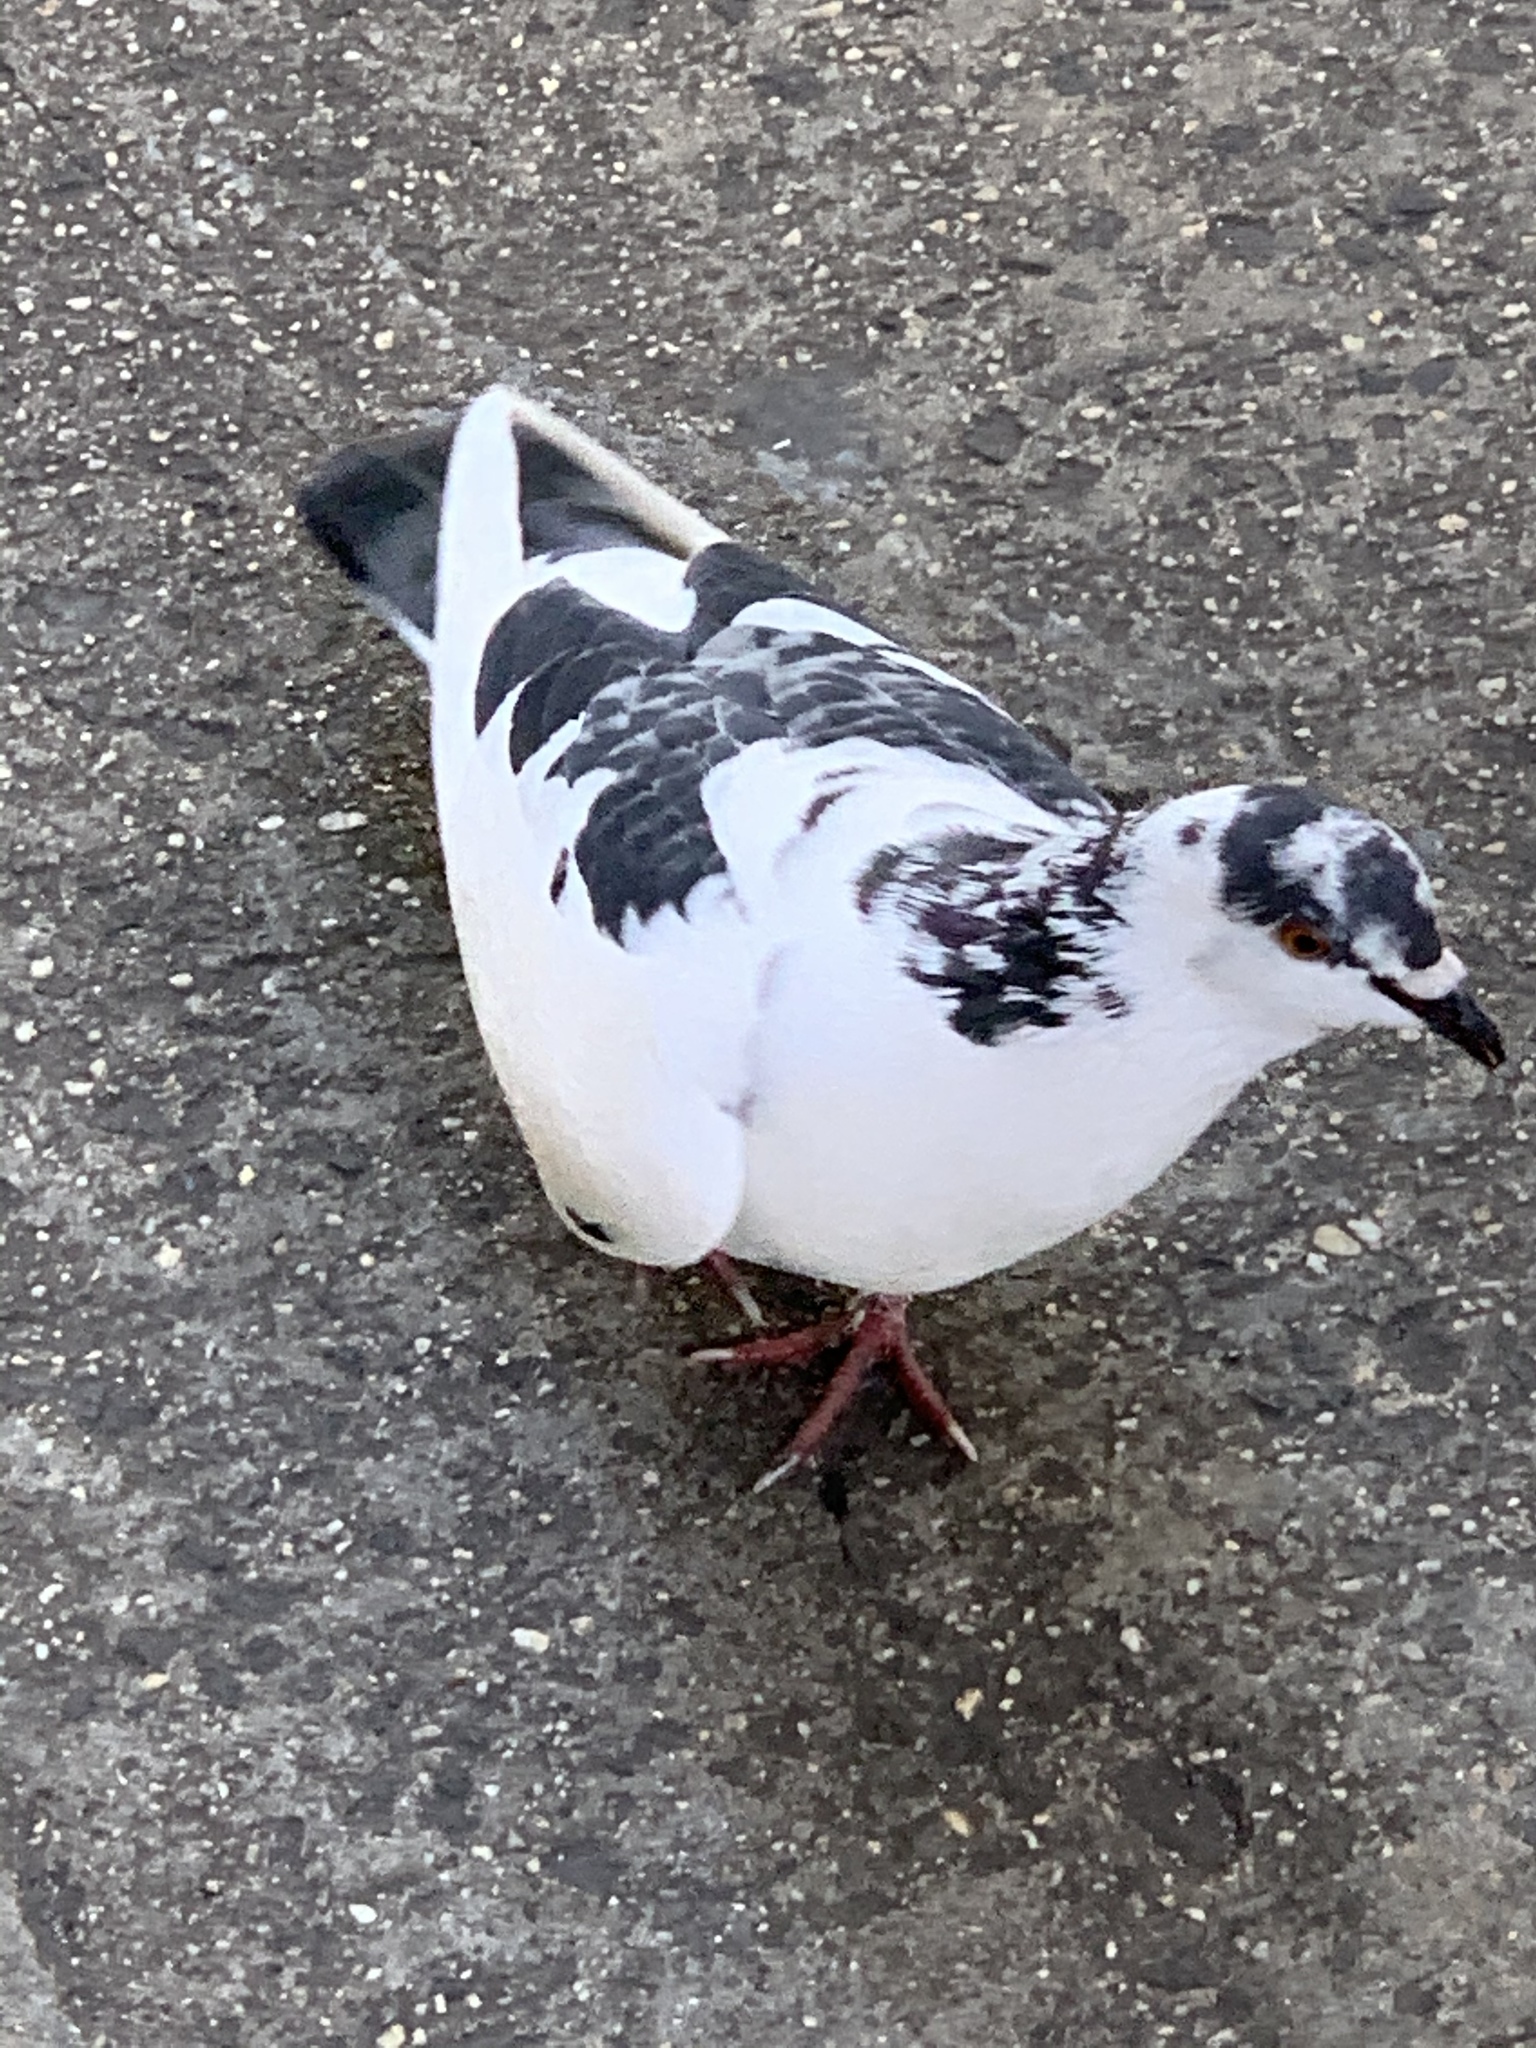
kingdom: Animalia
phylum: Chordata
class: Aves
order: Columbiformes
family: Columbidae
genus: Columba
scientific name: Columba livia
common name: Rock pigeon
